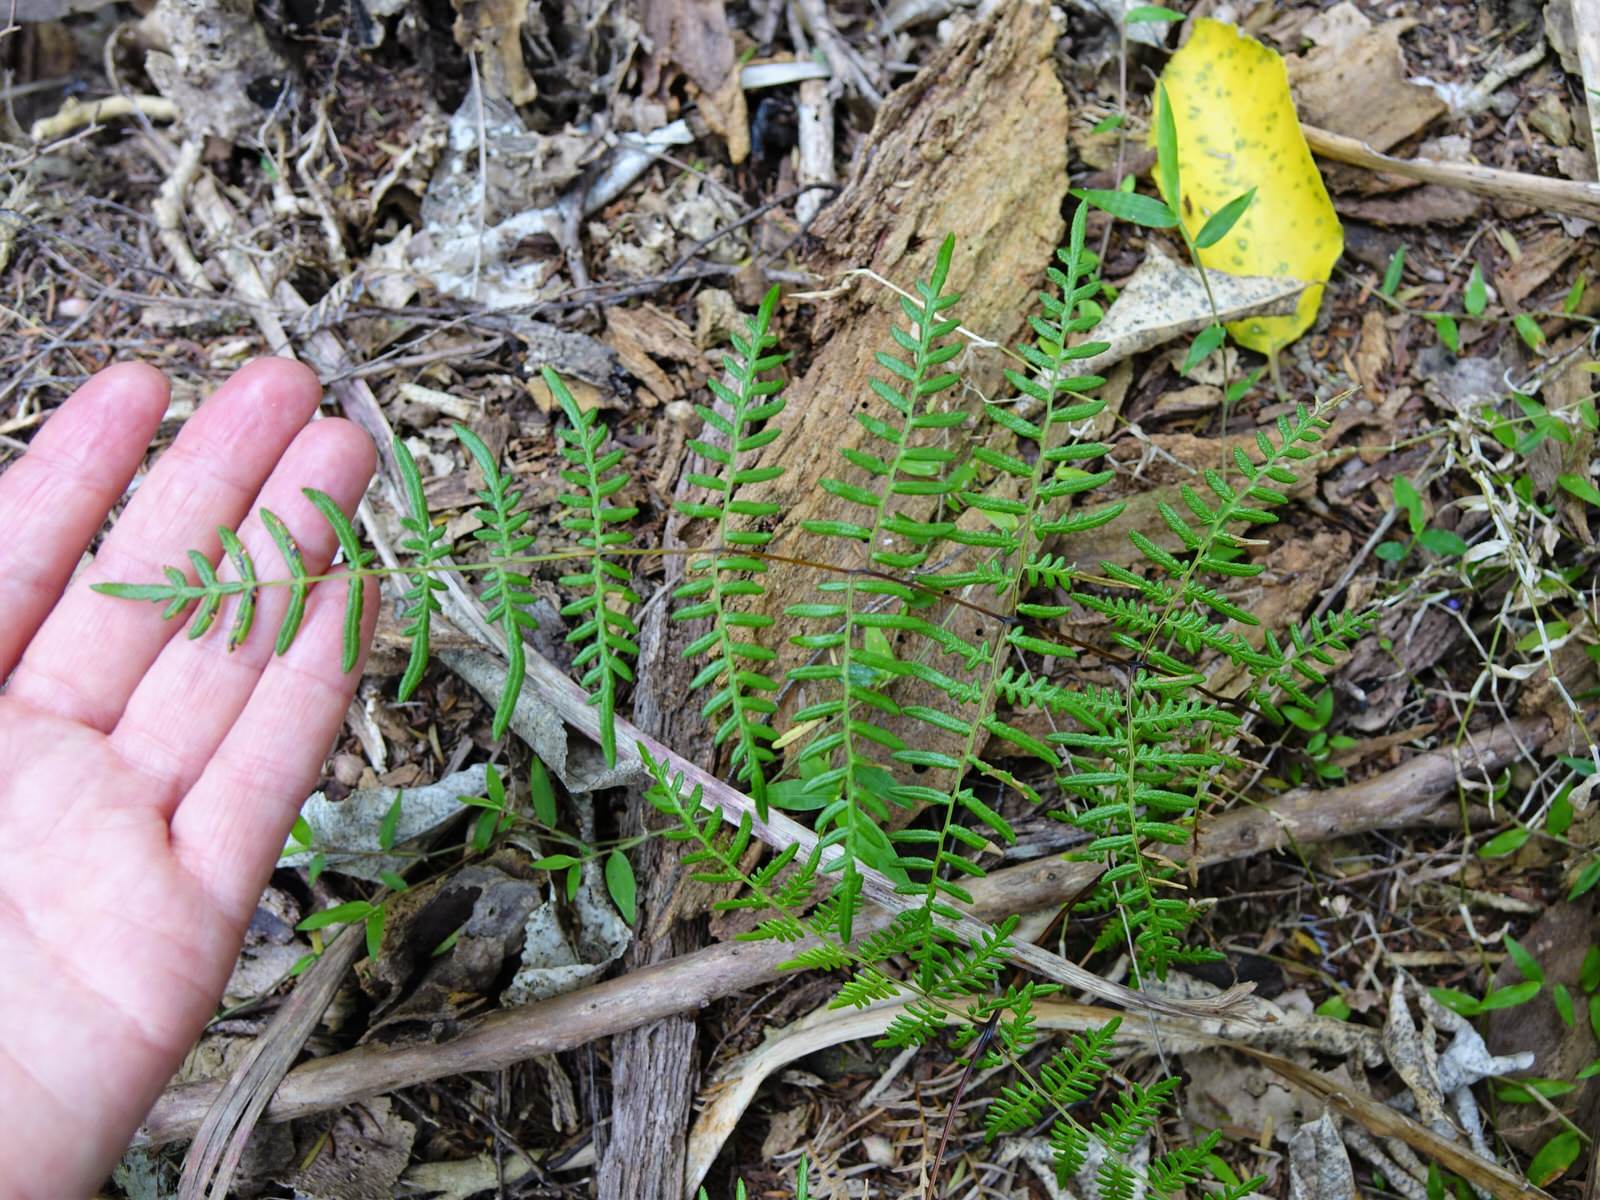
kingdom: Plantae
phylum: Tracheophyta
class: Polypodiopsida
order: Polypodiales
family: Dennstaedtiaceae
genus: Pteridium
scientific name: Pteridium esculentum
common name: Bracken fern
